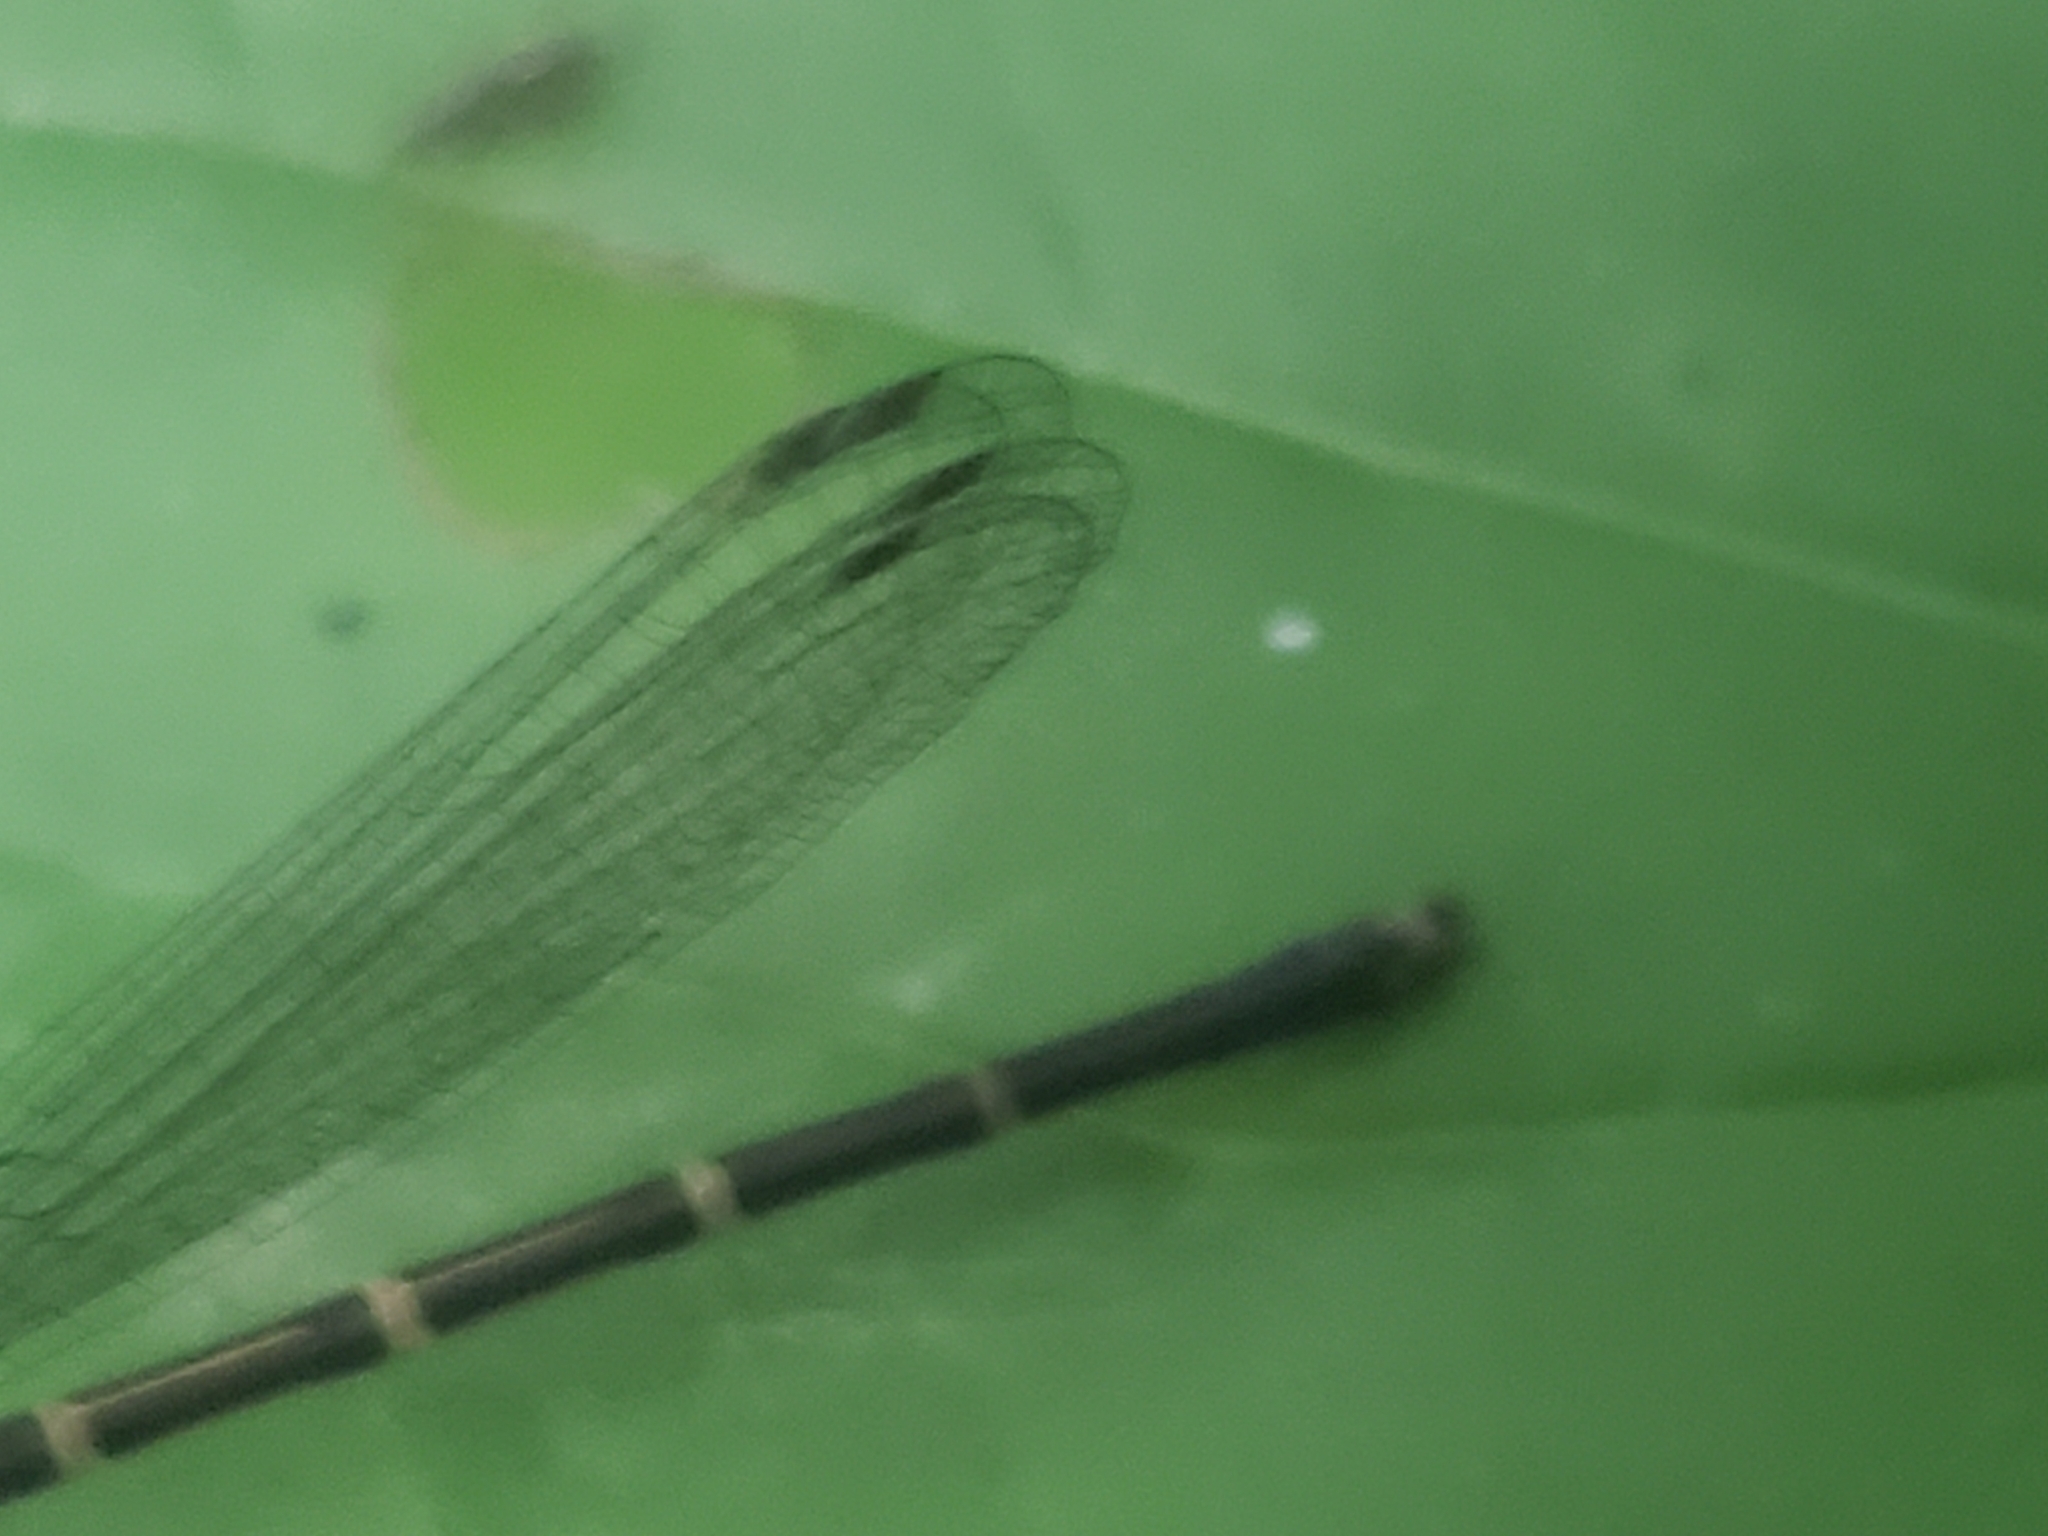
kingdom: Animalia
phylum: Arthropoda
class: Insecta
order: Odonata
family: Coenagrionidae
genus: Argia
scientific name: Argia tibialis
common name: Blue-tipped dancer
